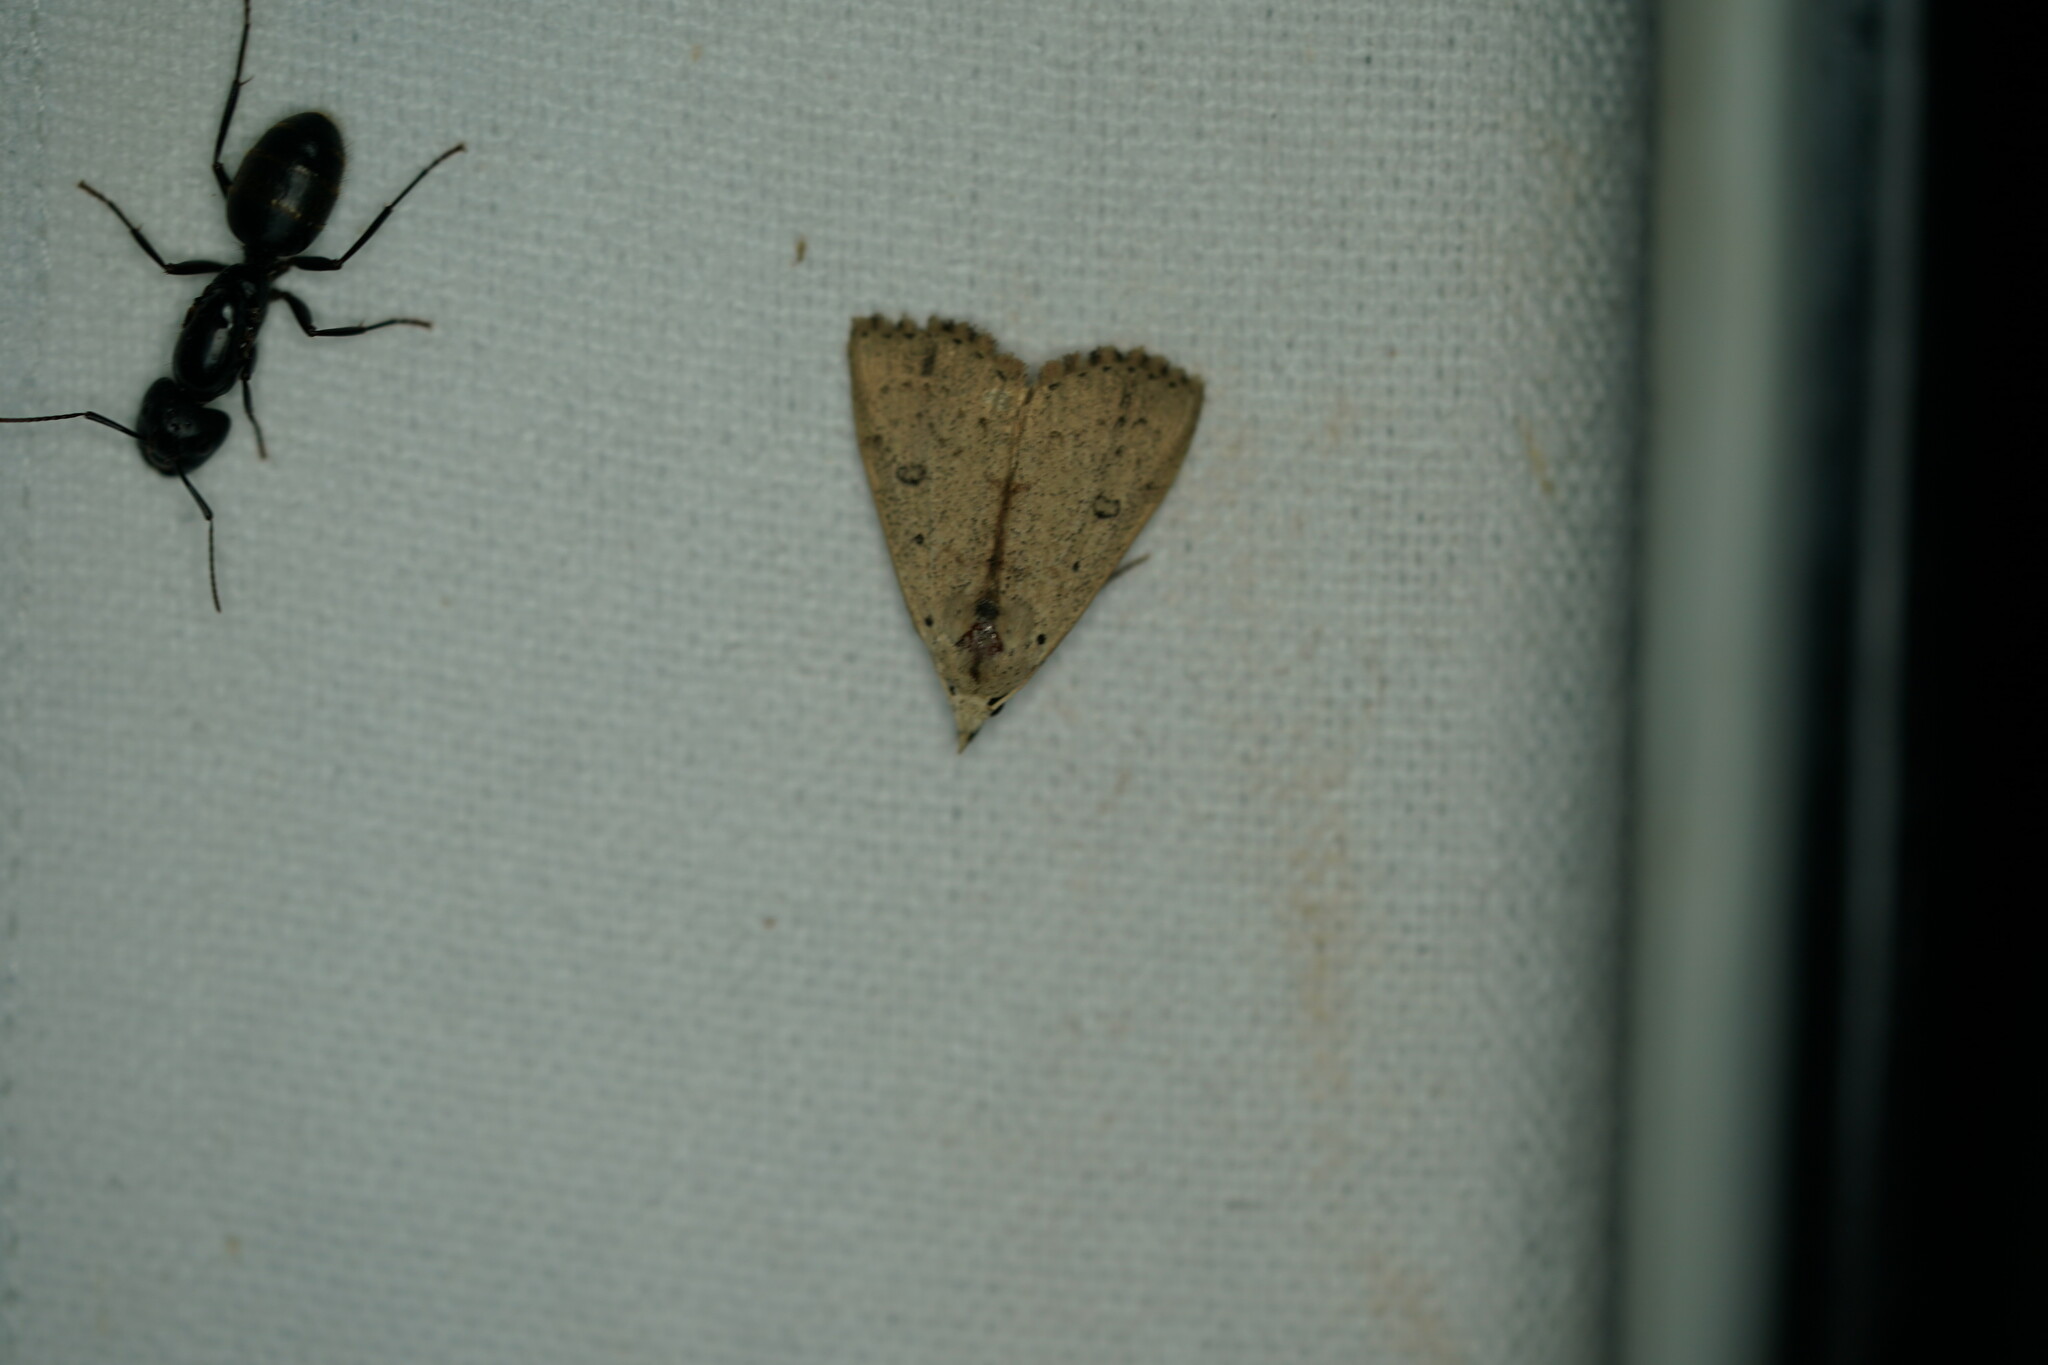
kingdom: Animalia
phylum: Arthropoda
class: Insecta
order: Lepidoptera
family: Erebidae
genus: Scolecocampa
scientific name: Scolecocampa liburna
